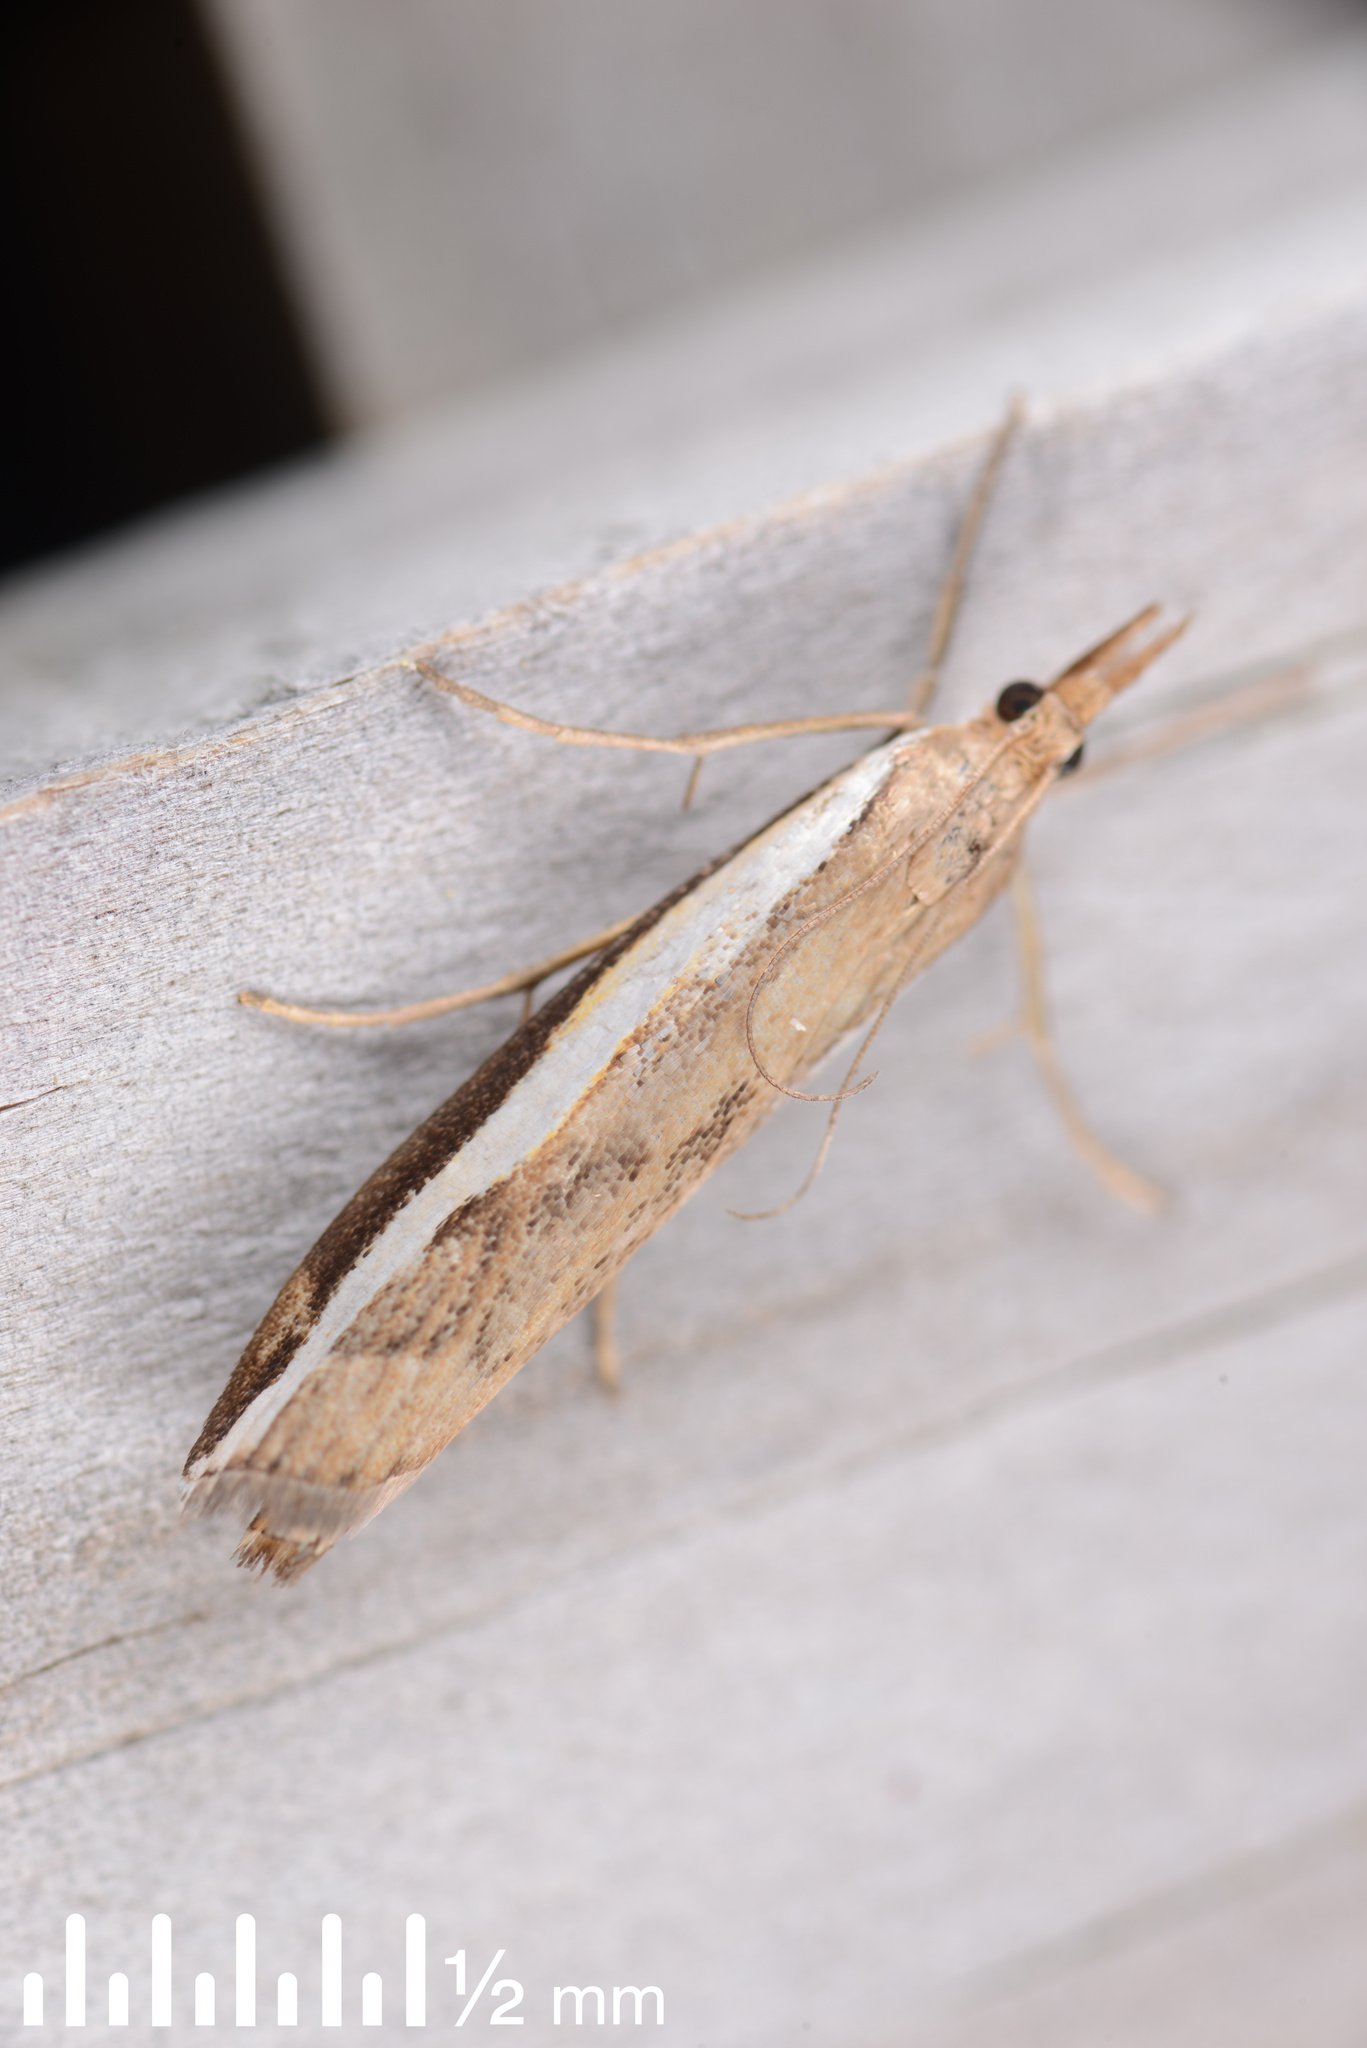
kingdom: Animalia
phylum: Arthropoda
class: Insecta
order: Lepidoptera
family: Crambidae
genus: Orocrambus
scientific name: Orocrambus flexuosellus
